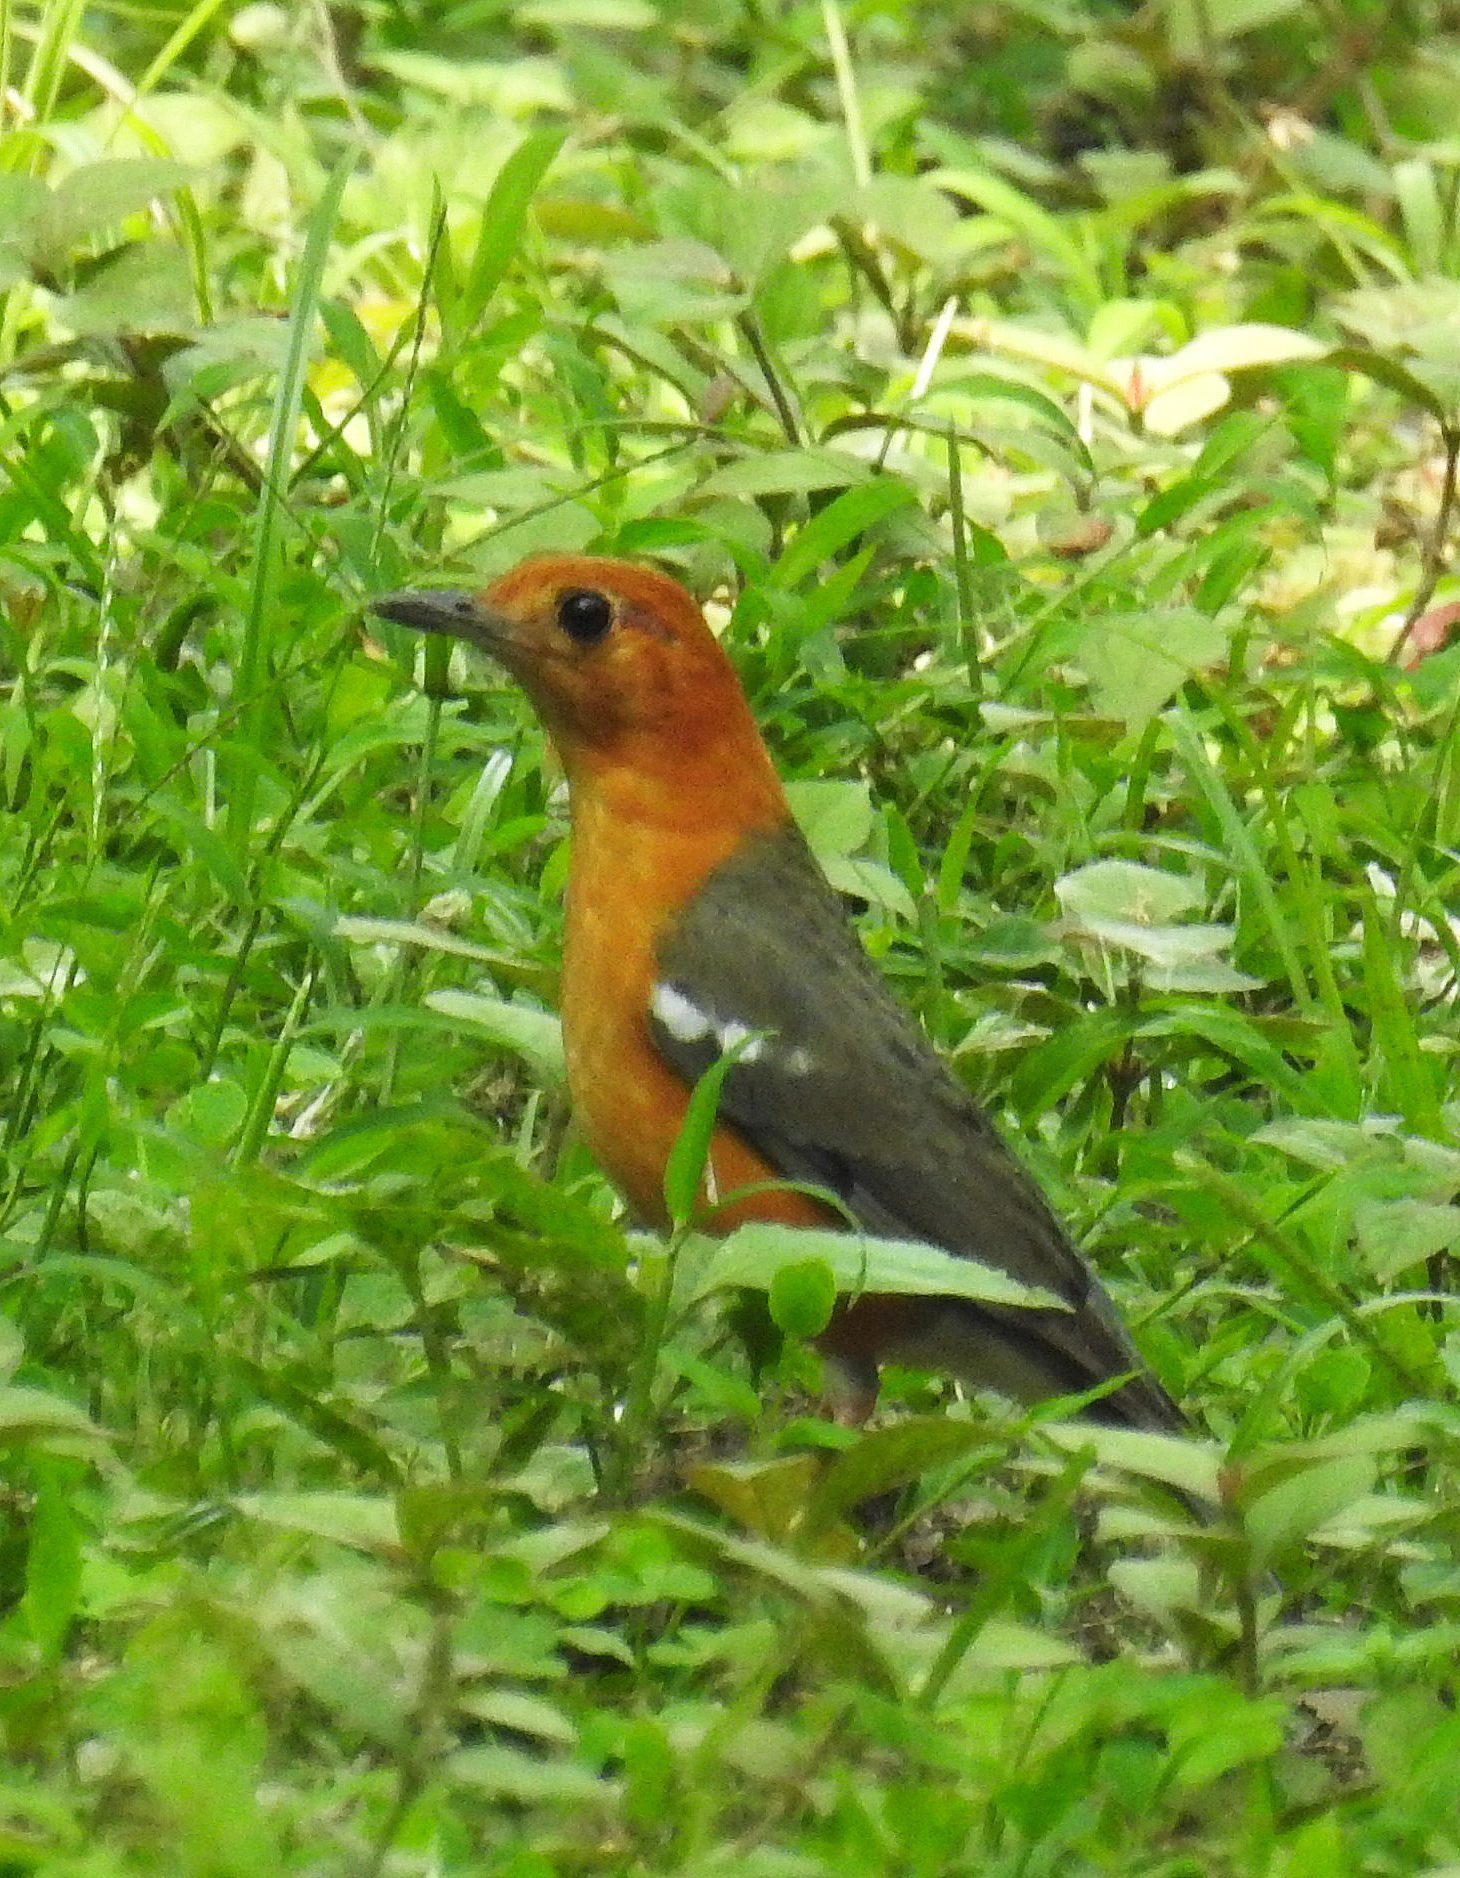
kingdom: Animalia
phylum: Chordata
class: Aves
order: Passeriformes
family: Turdidae
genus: Geokichla
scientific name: Geokichla citrina
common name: Orange-headed thrush
